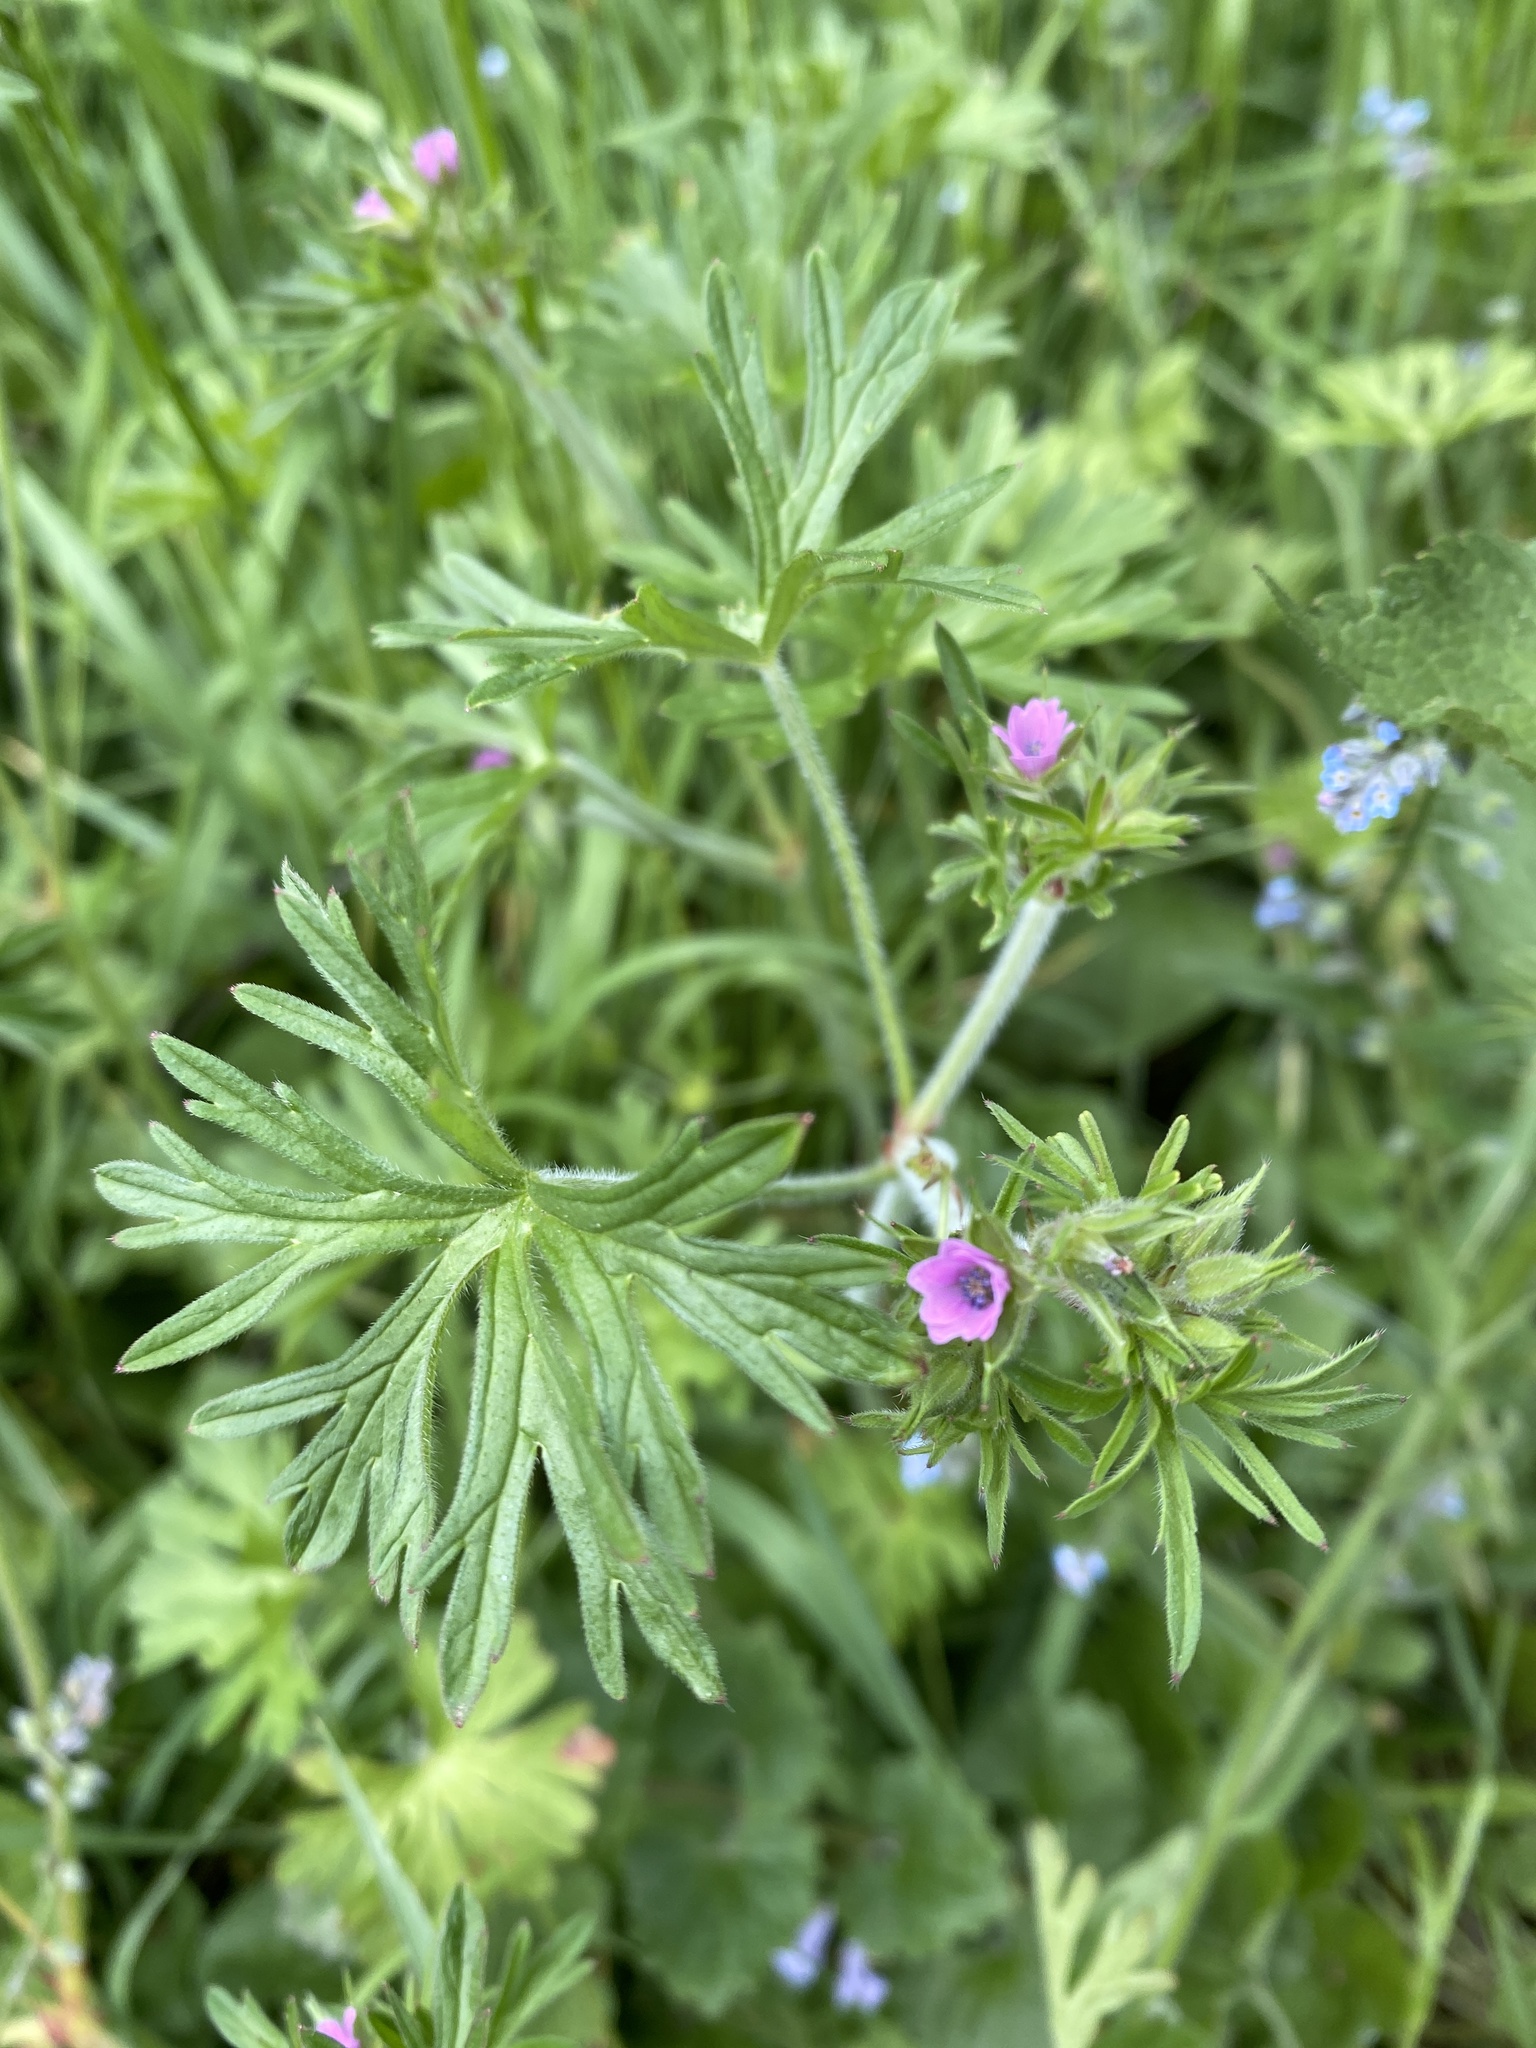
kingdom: Plantae
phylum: Tracheophyta
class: Magnoliopsida
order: Geraniales
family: Geraniaceae
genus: Geranium
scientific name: Geranium dissectum
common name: Cut-leaved crane's-bill
